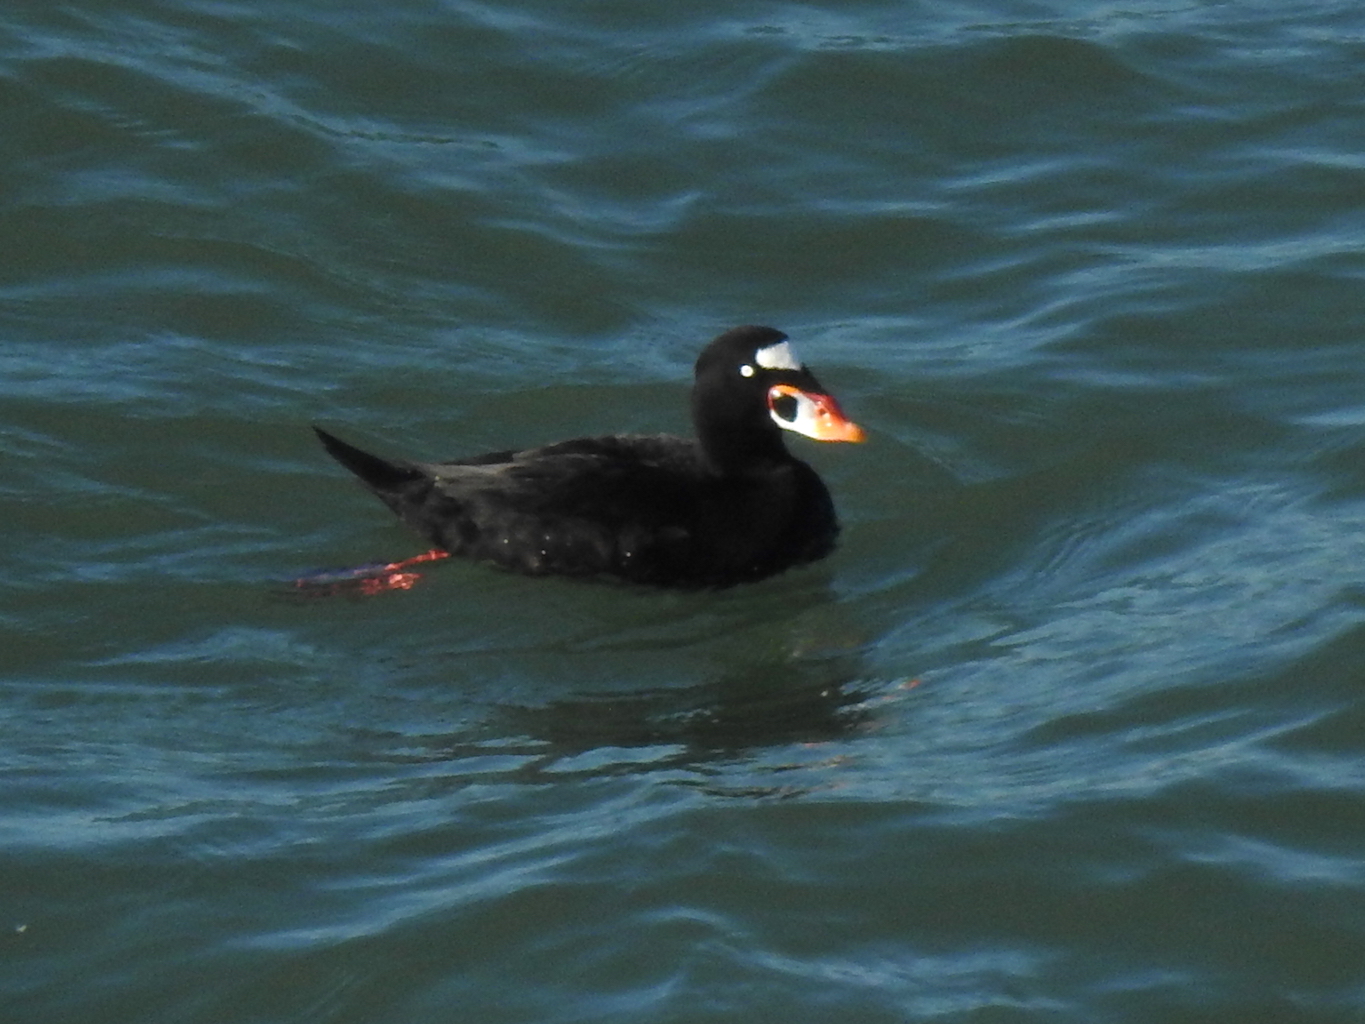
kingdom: Animalia
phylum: Chordata
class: Aves
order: Anseriformes
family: Anatidae
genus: Melanitta
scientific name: Melanitta perspicillata
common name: Surf scoter
